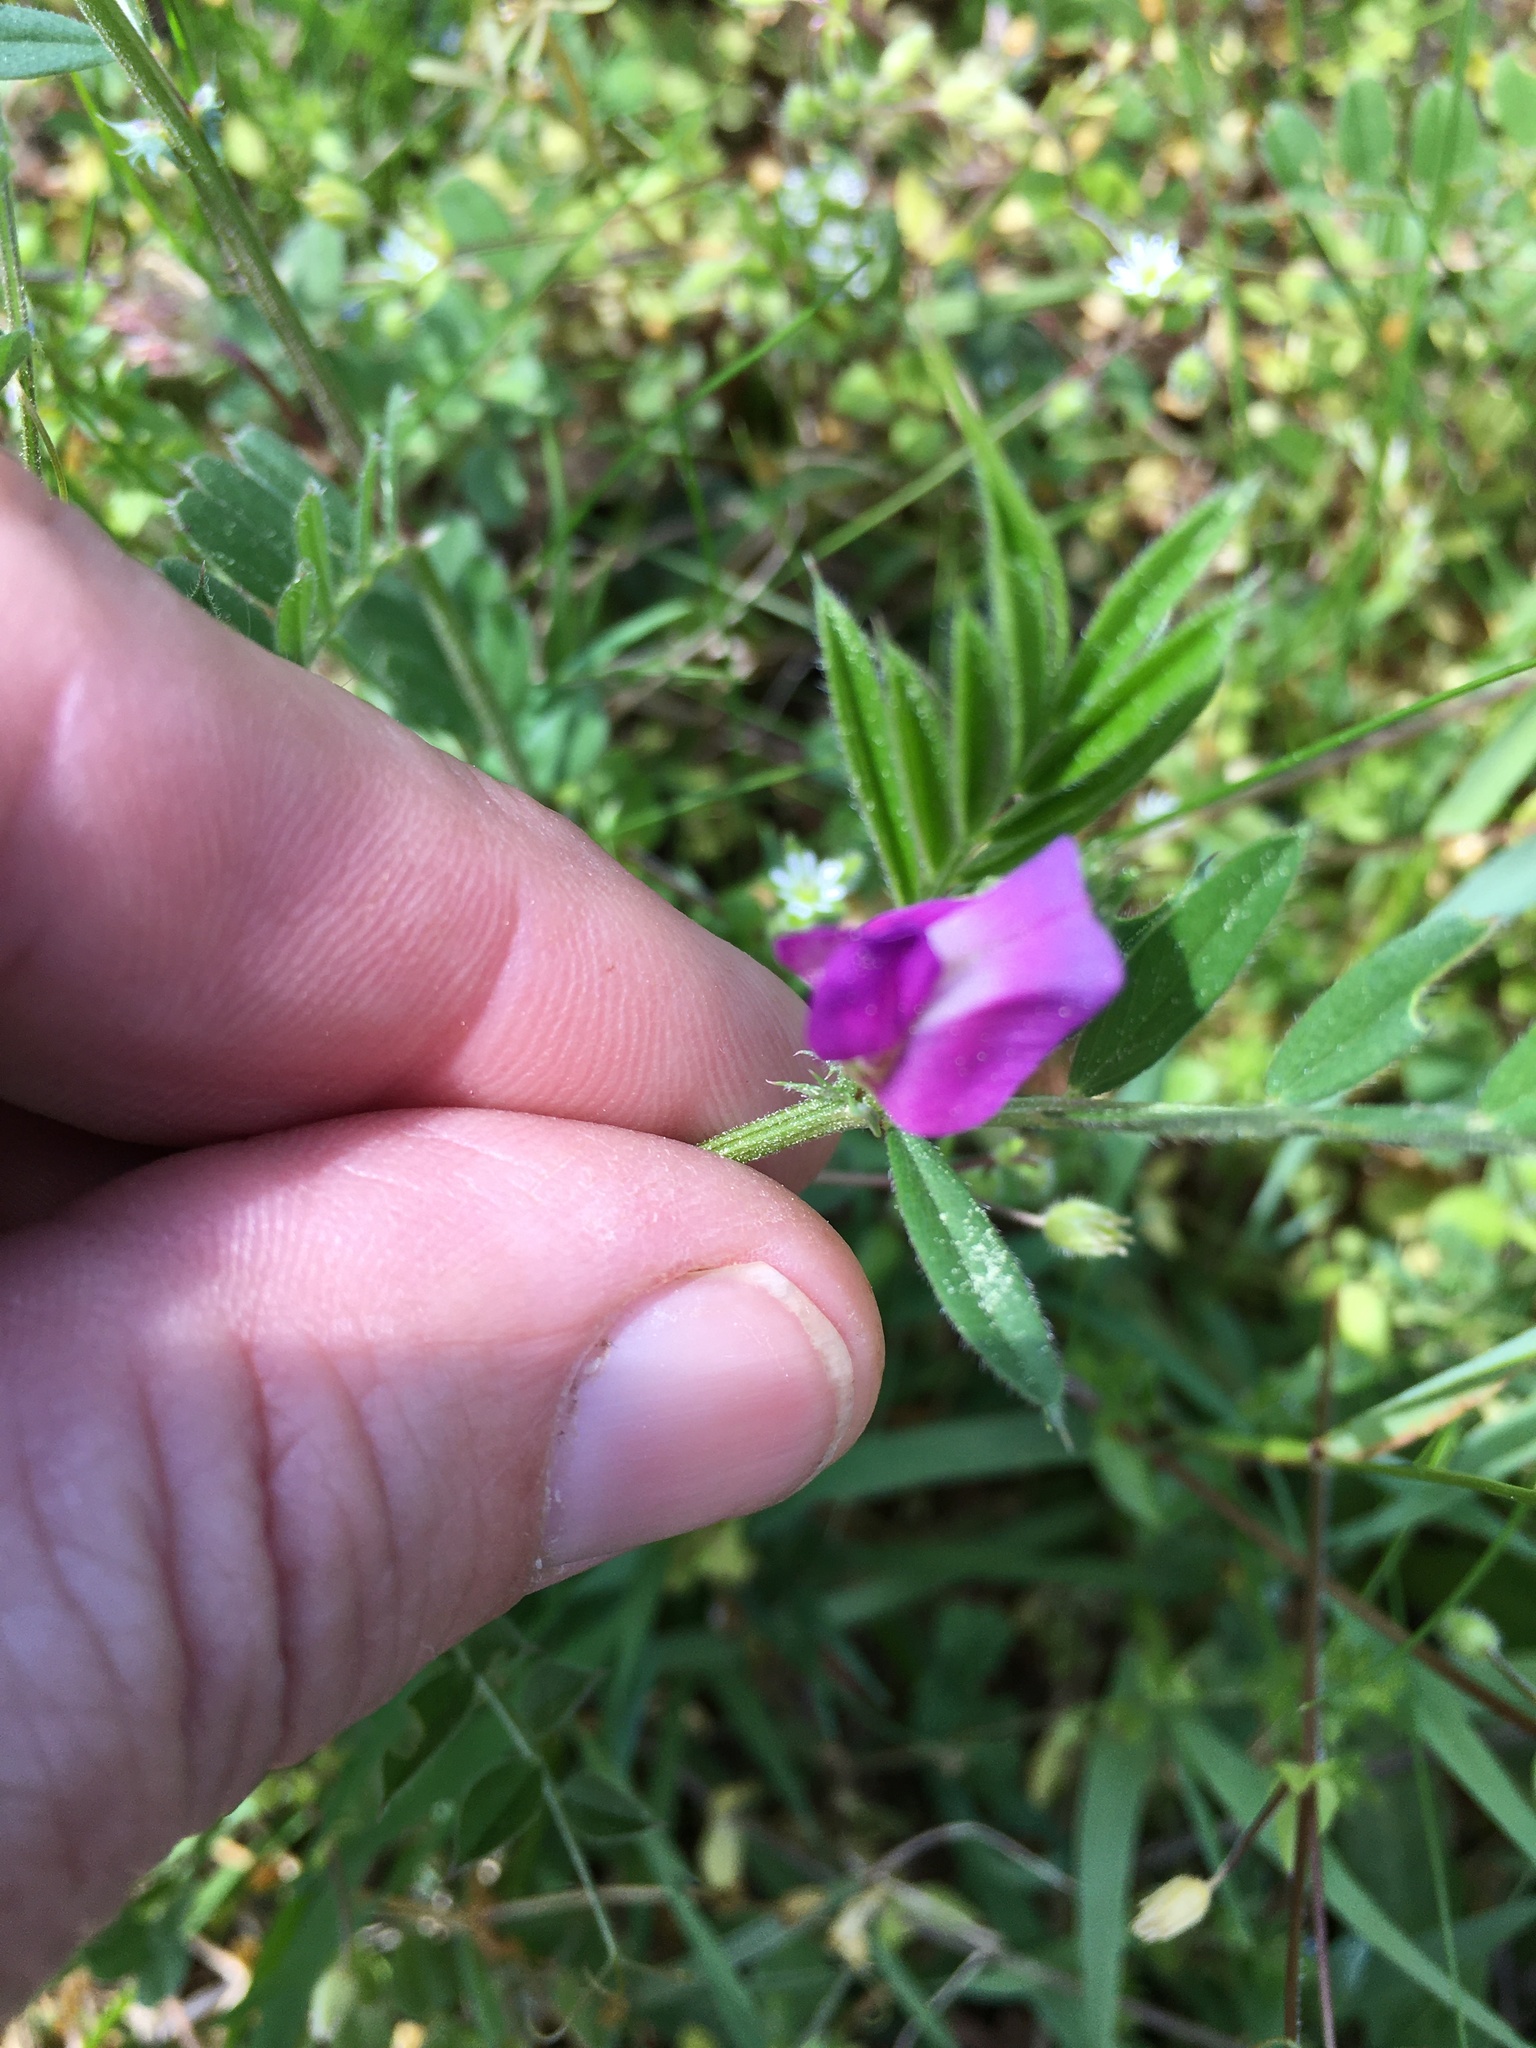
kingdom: Plantae
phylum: Tracheophyta
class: Magnoliopsida
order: Fabales
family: Fabaceae
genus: Vicia
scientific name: Vicia sativa
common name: Garden vetch
